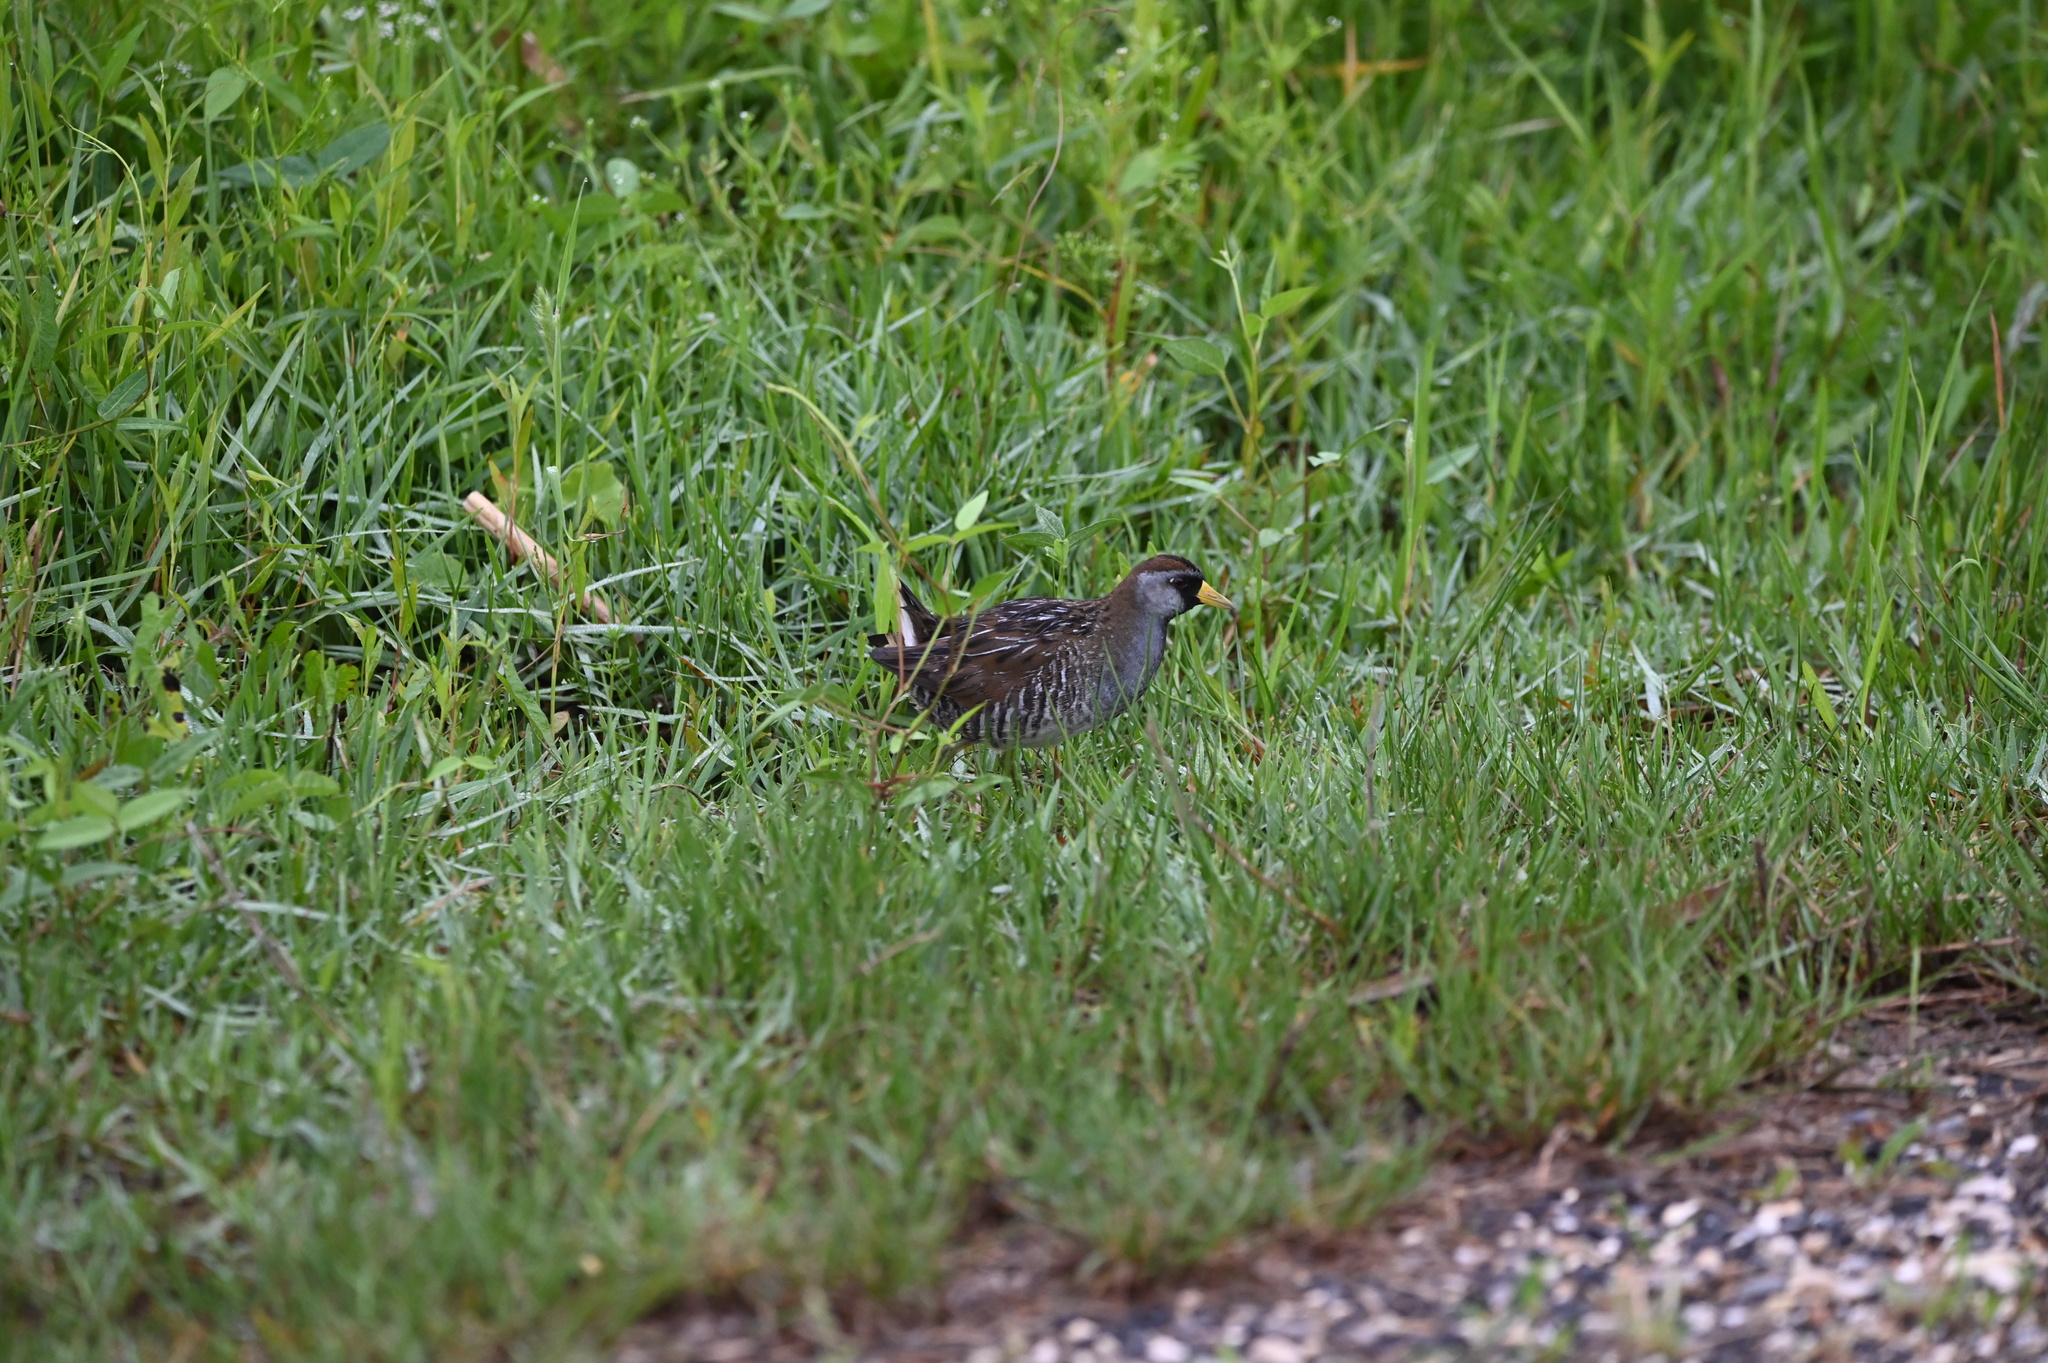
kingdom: Animalia
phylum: Chordata
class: Aves
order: Gruiformes
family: Rallidae
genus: Porzana
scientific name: Porzana carolina
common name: Sora
